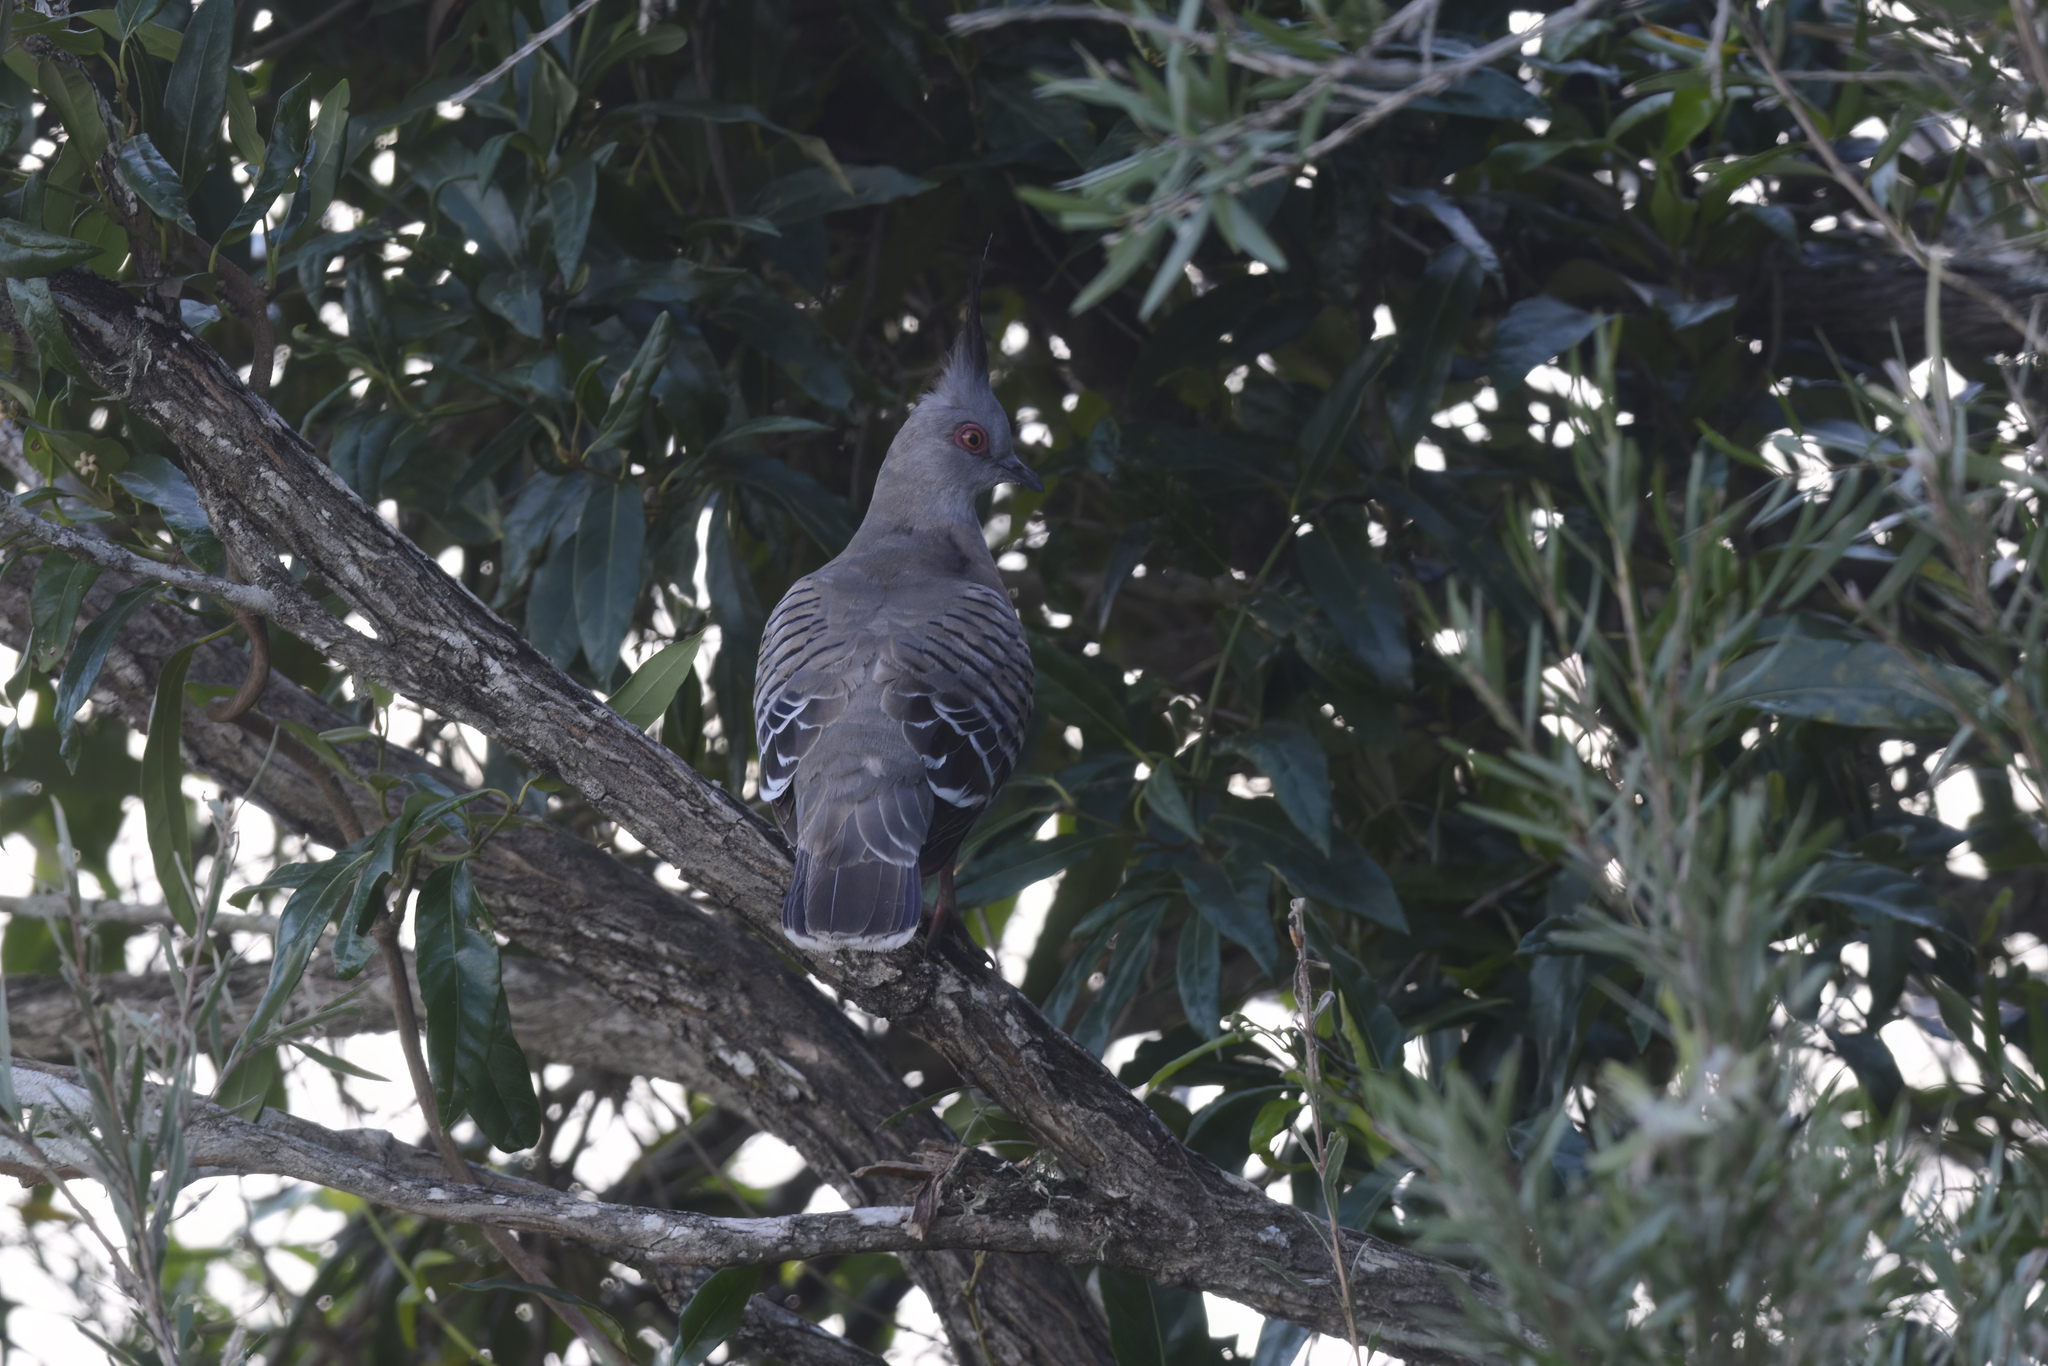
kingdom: Animalia
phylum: Chordata
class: Aves
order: Columbiformes
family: Columbidae
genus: Ocyphaps
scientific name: Ocyphaps lophotes
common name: Crested pigeon
